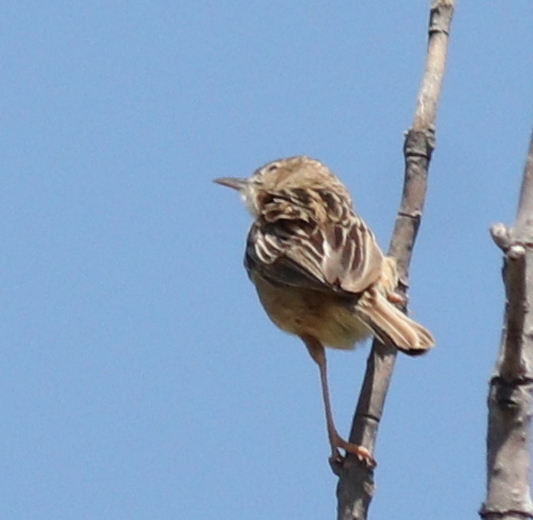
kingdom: Animalia
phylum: Chordata
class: Aves
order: Passeriformes
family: Cisticolidae
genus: Cisticola
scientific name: Cisticola juncidis
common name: Zitting cisticola
